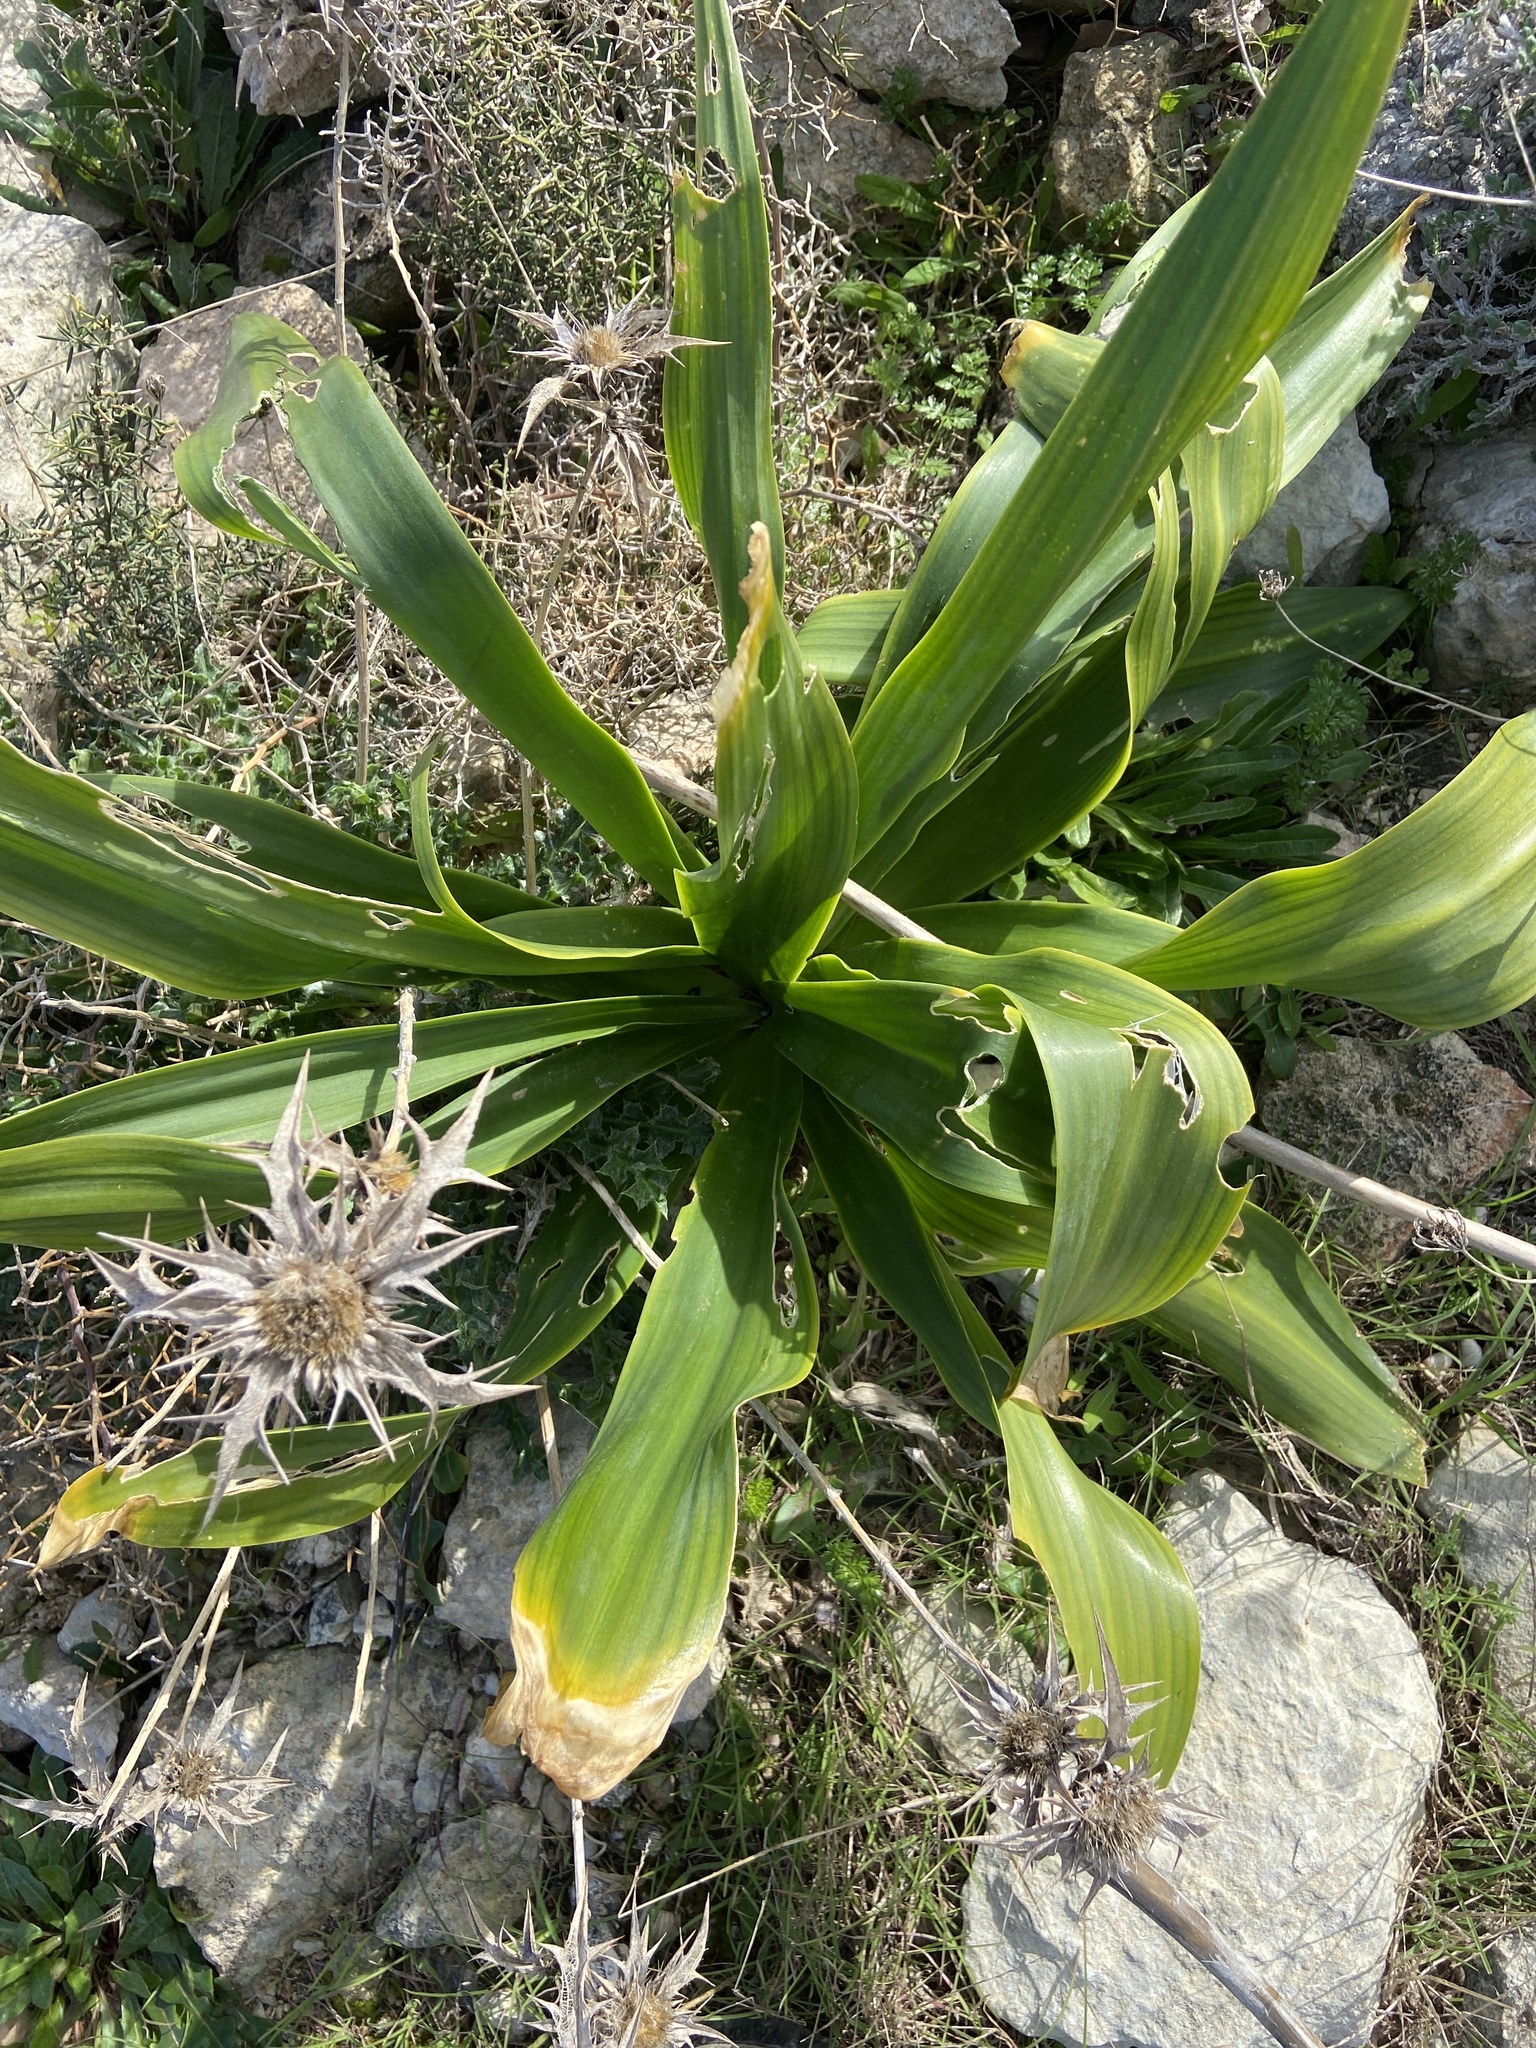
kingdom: Plantae
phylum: Tracheophyta
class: Liliopsida
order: Asparagales
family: Asparagaceae
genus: Drimia
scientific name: Drimia pancration
